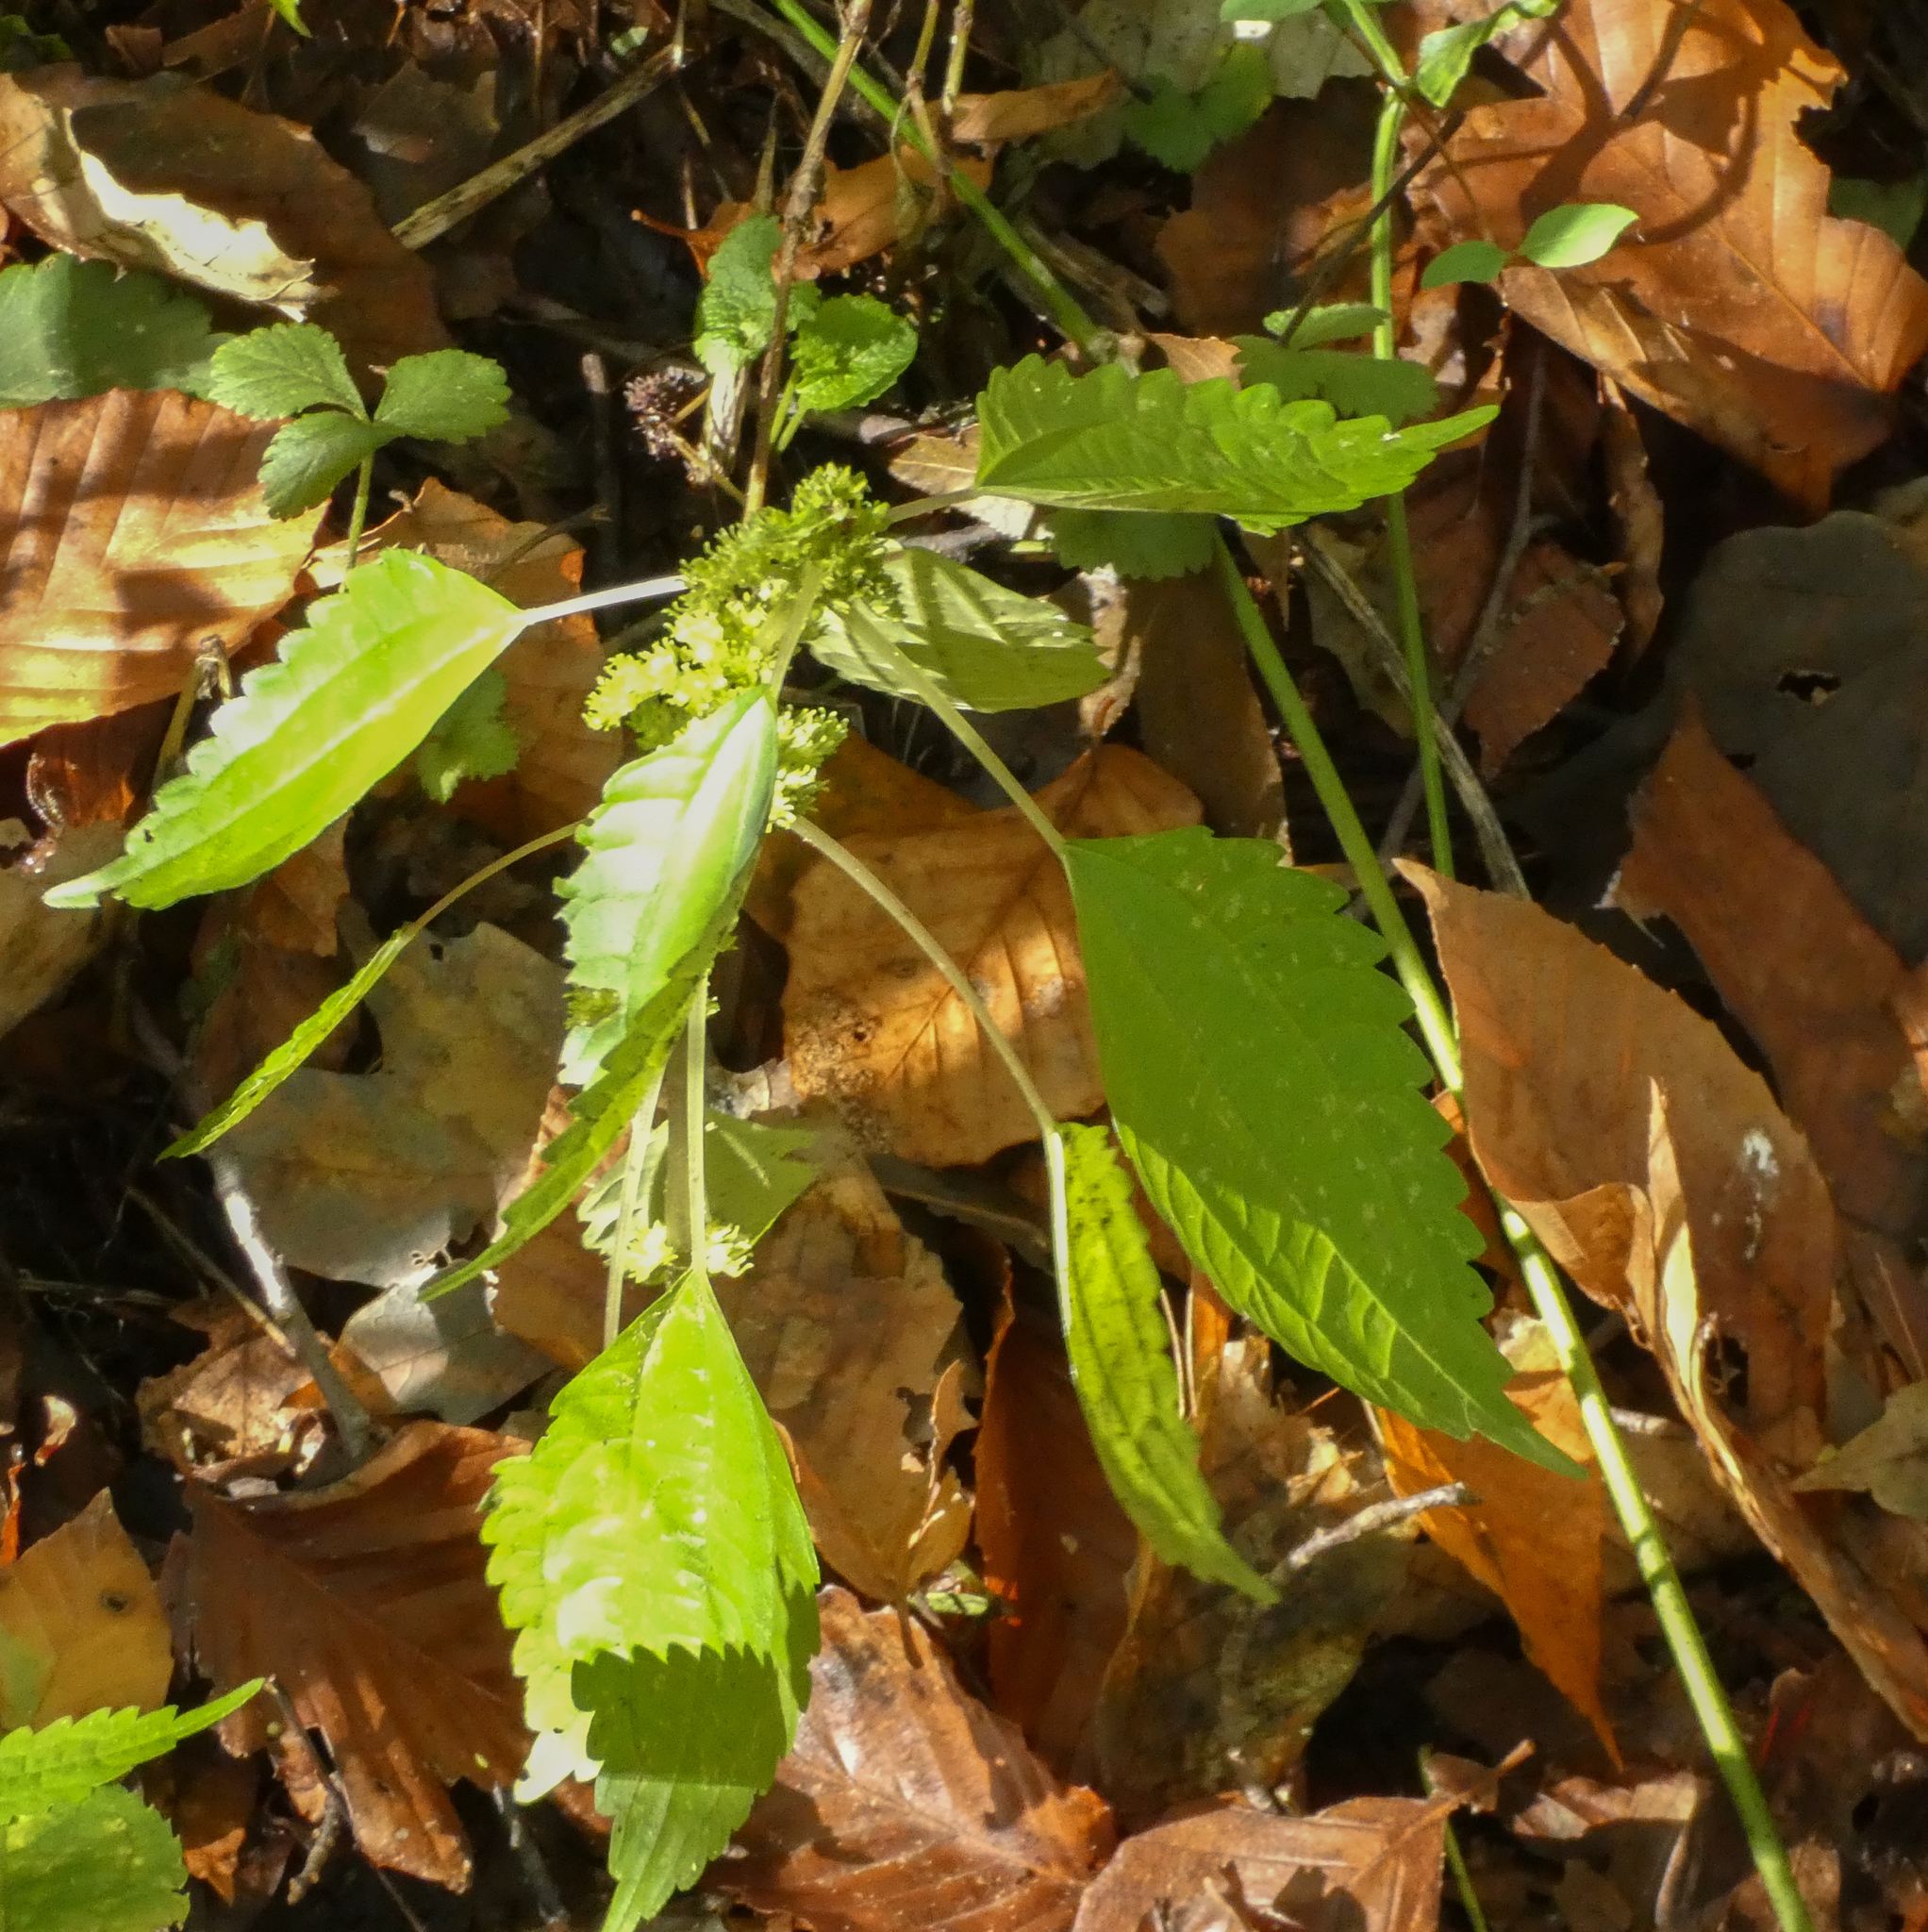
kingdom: Plantae
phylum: Tracheophyta
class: Magnoliopsida
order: Rosales
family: Urticaceae
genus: Pilea
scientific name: Pilea pumila
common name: Clearweed
